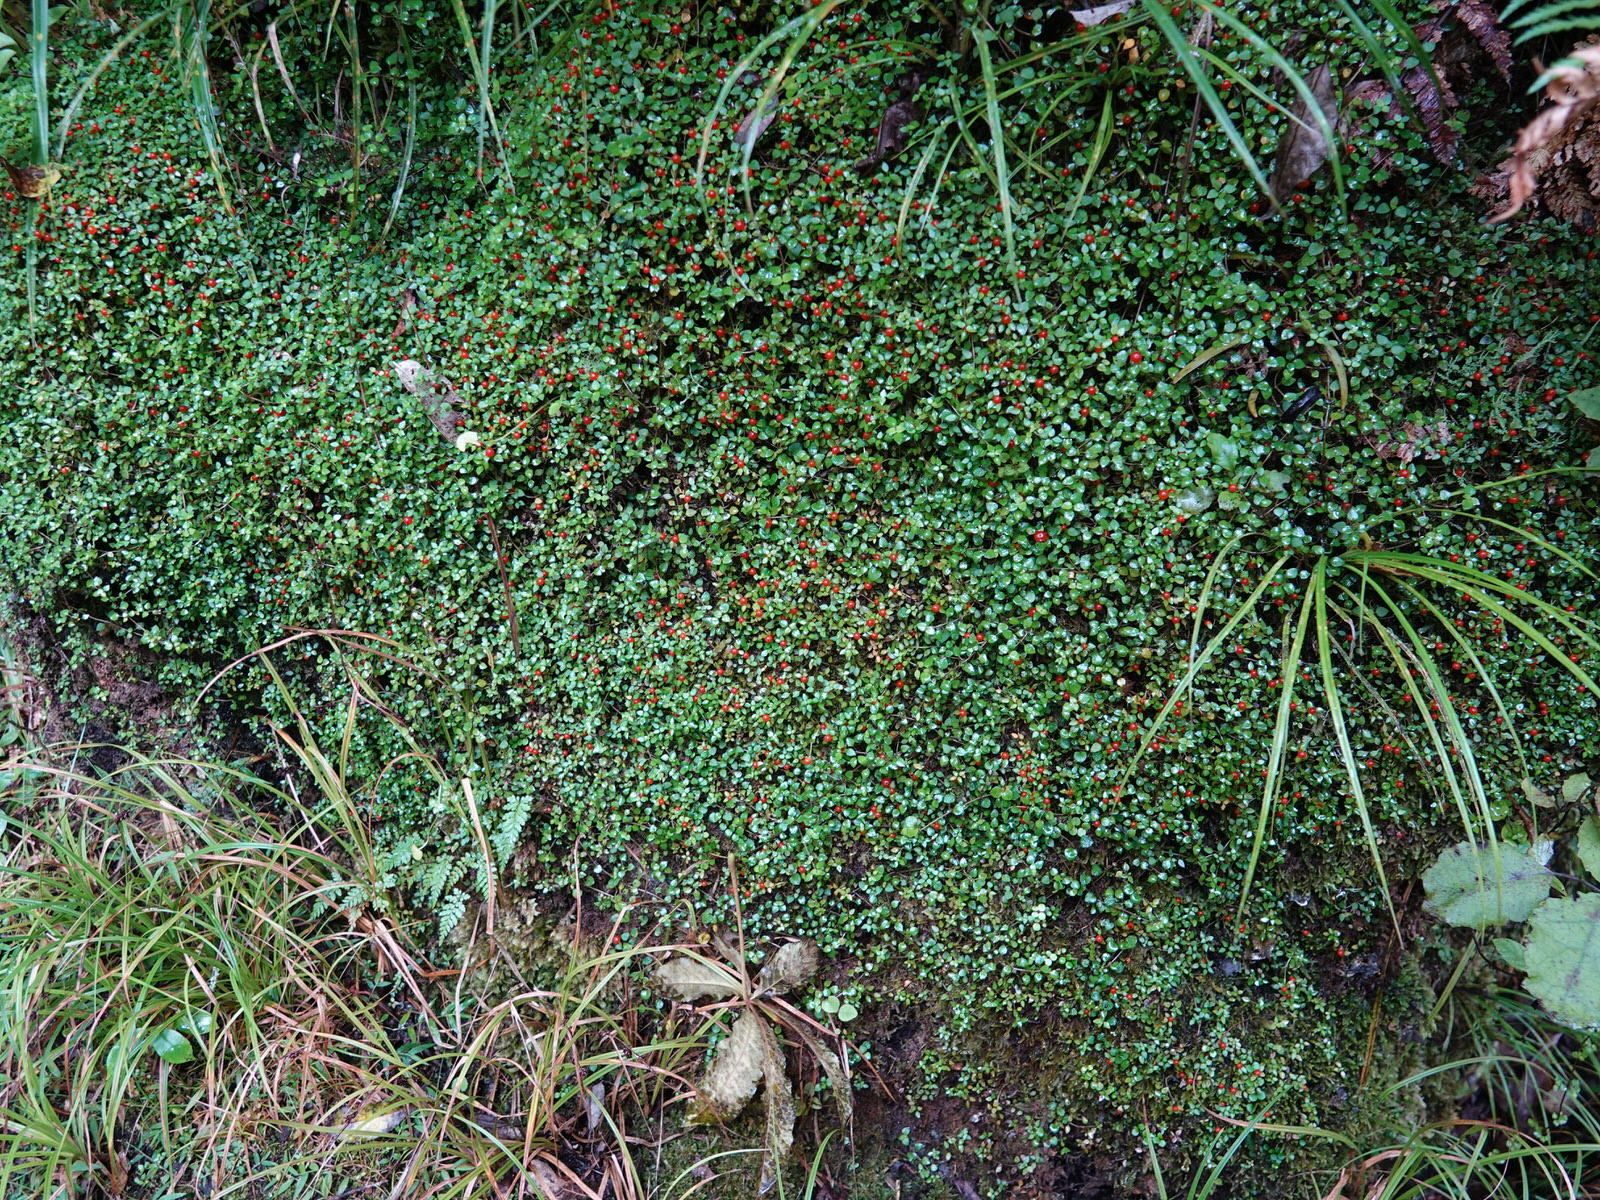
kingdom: Plantae
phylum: Tracheophyta
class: Magnoliopsida
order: Gentianales
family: Rubiaceae
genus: Nertera
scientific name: Nertera granadensis
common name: Beadplant
